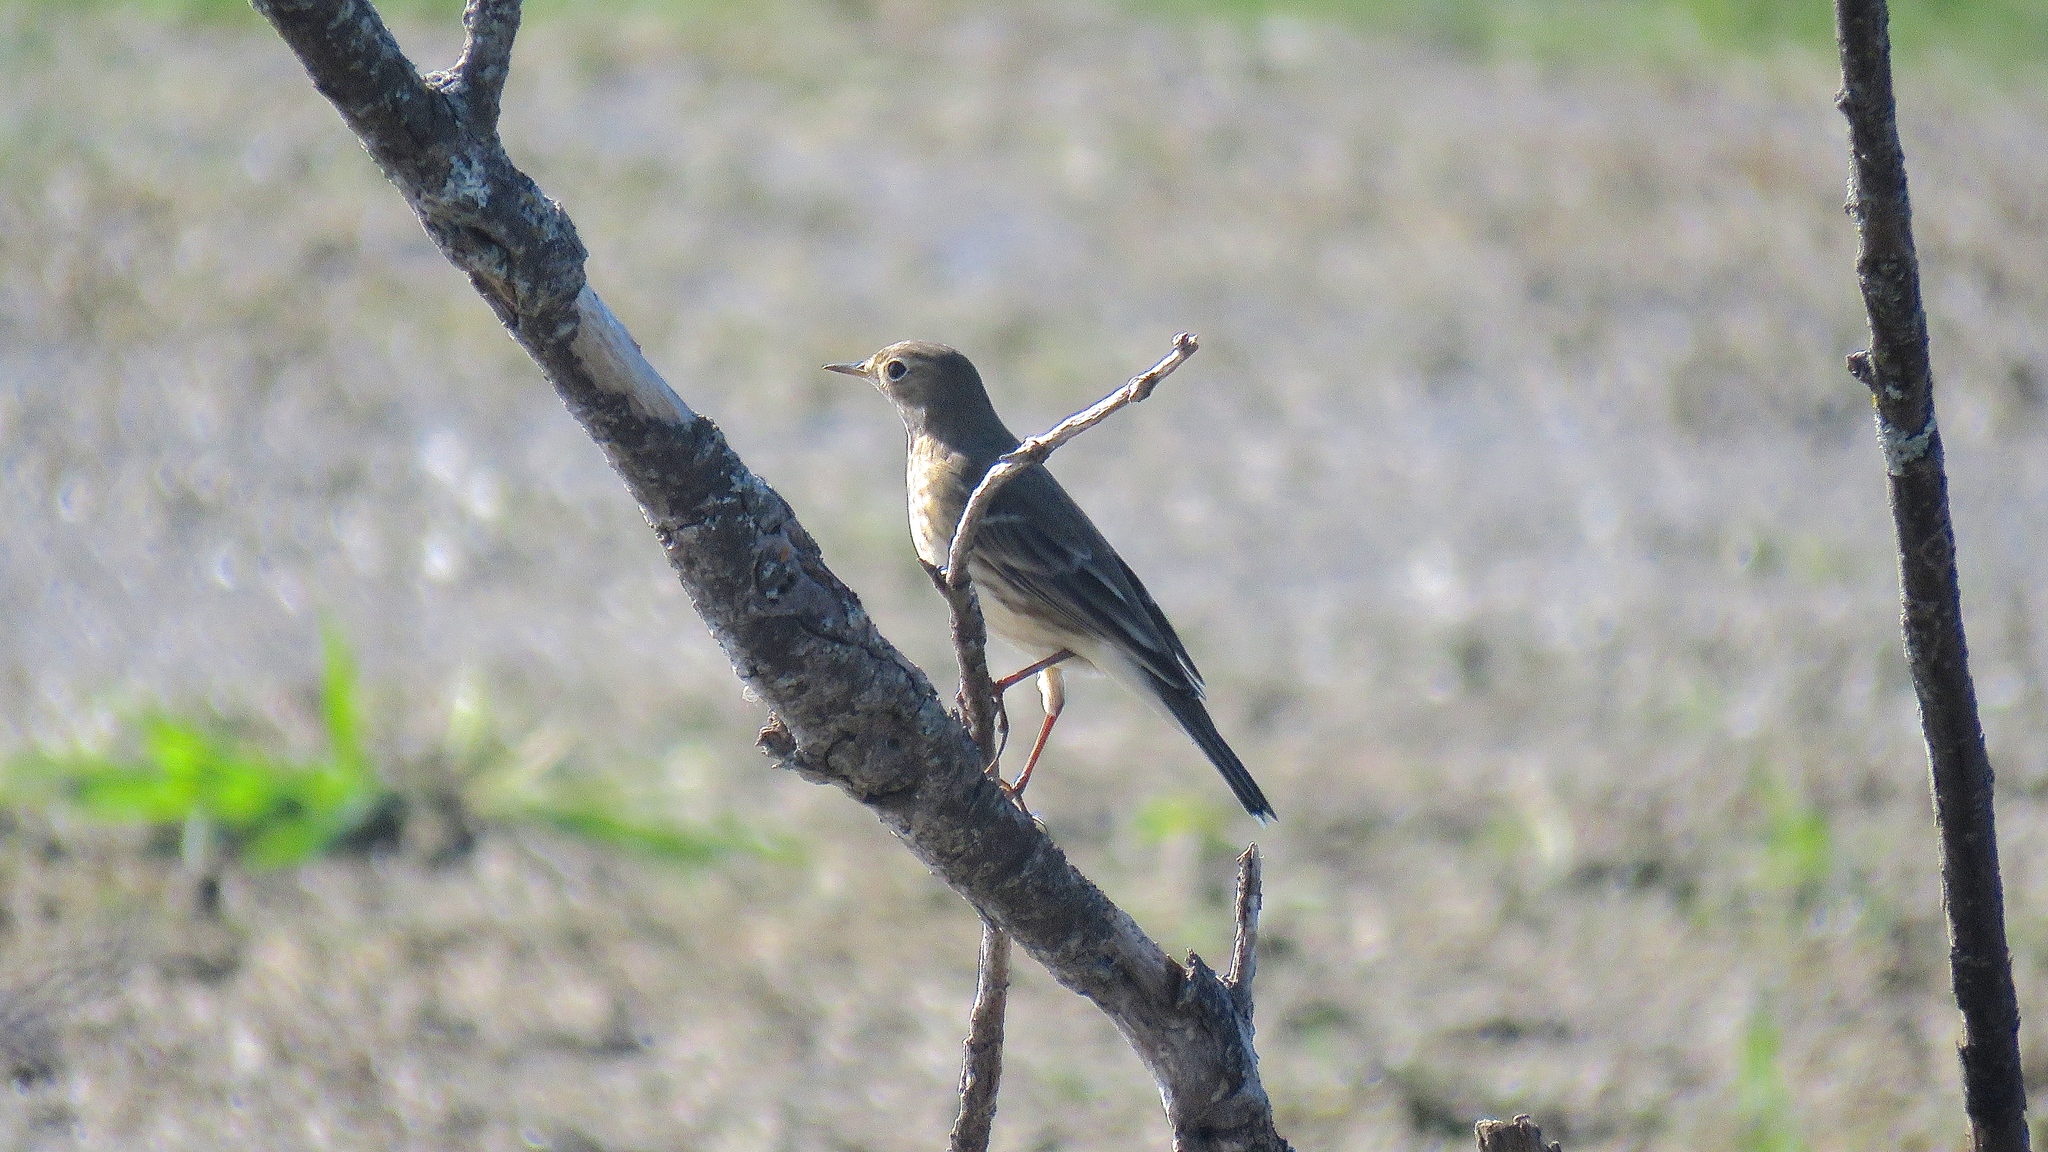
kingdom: Animalia
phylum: Chordata
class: Aves
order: Passeriformes
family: Motacillidae
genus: Anthus
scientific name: Anthus rubescens
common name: Buff-bellied pipit
